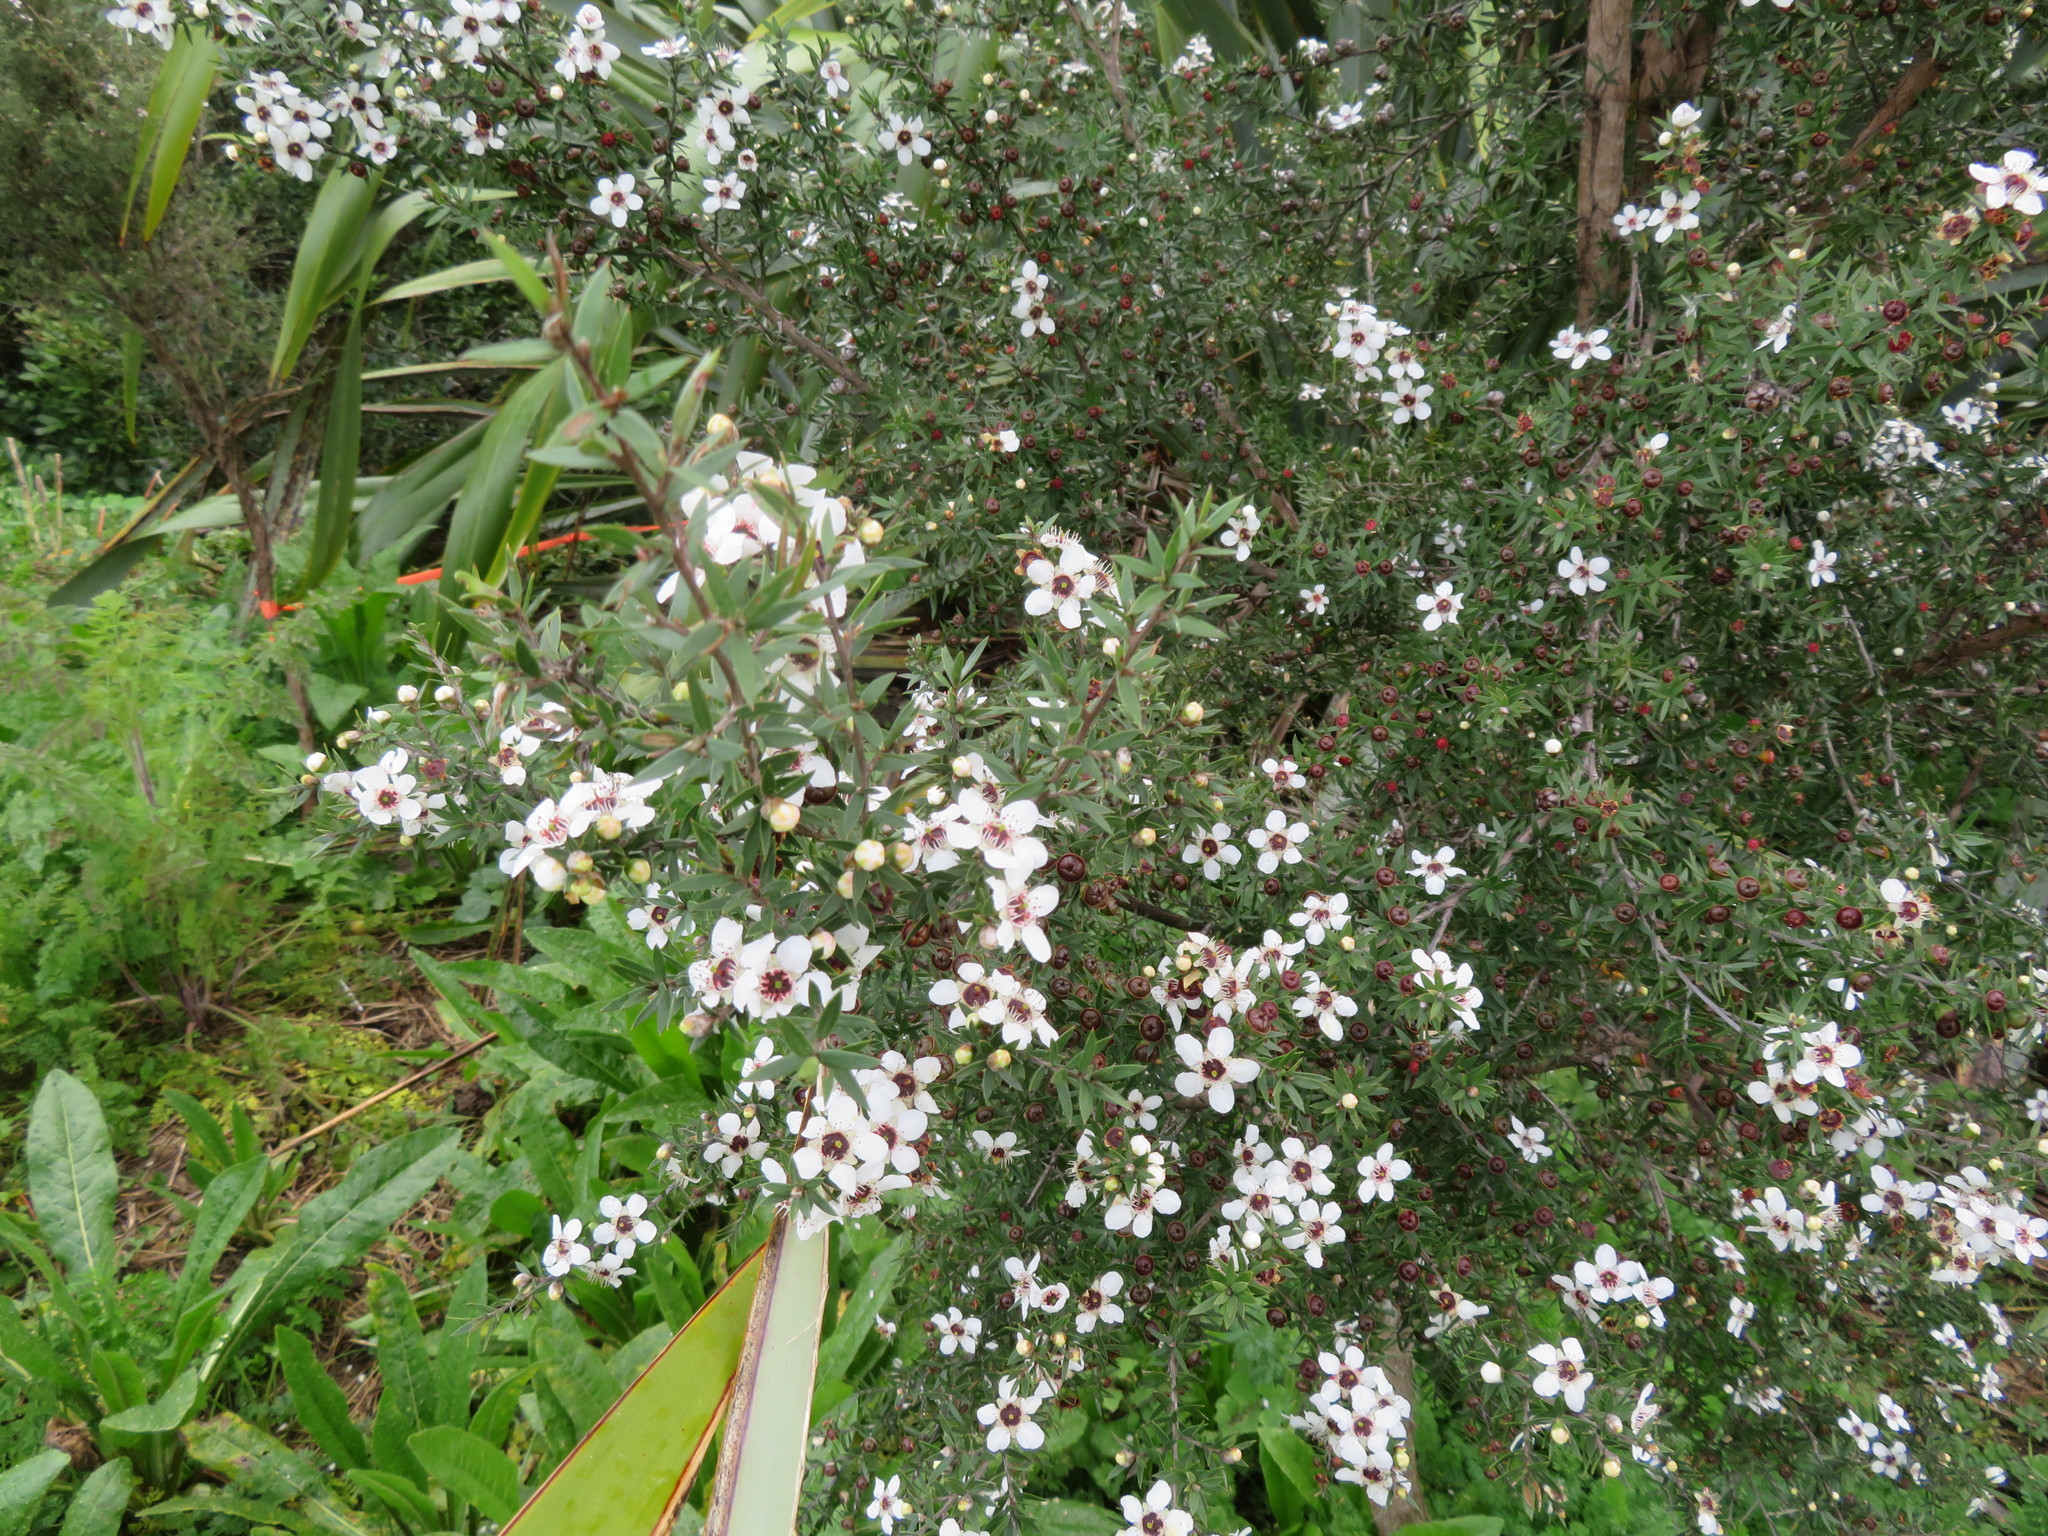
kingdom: Plantae
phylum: Tracheophyta
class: Magnoliopsida
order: Myrtales
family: Myrtaceae
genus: Leptospermum
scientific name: Leptospermum scoparium
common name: Broom tea-tree
